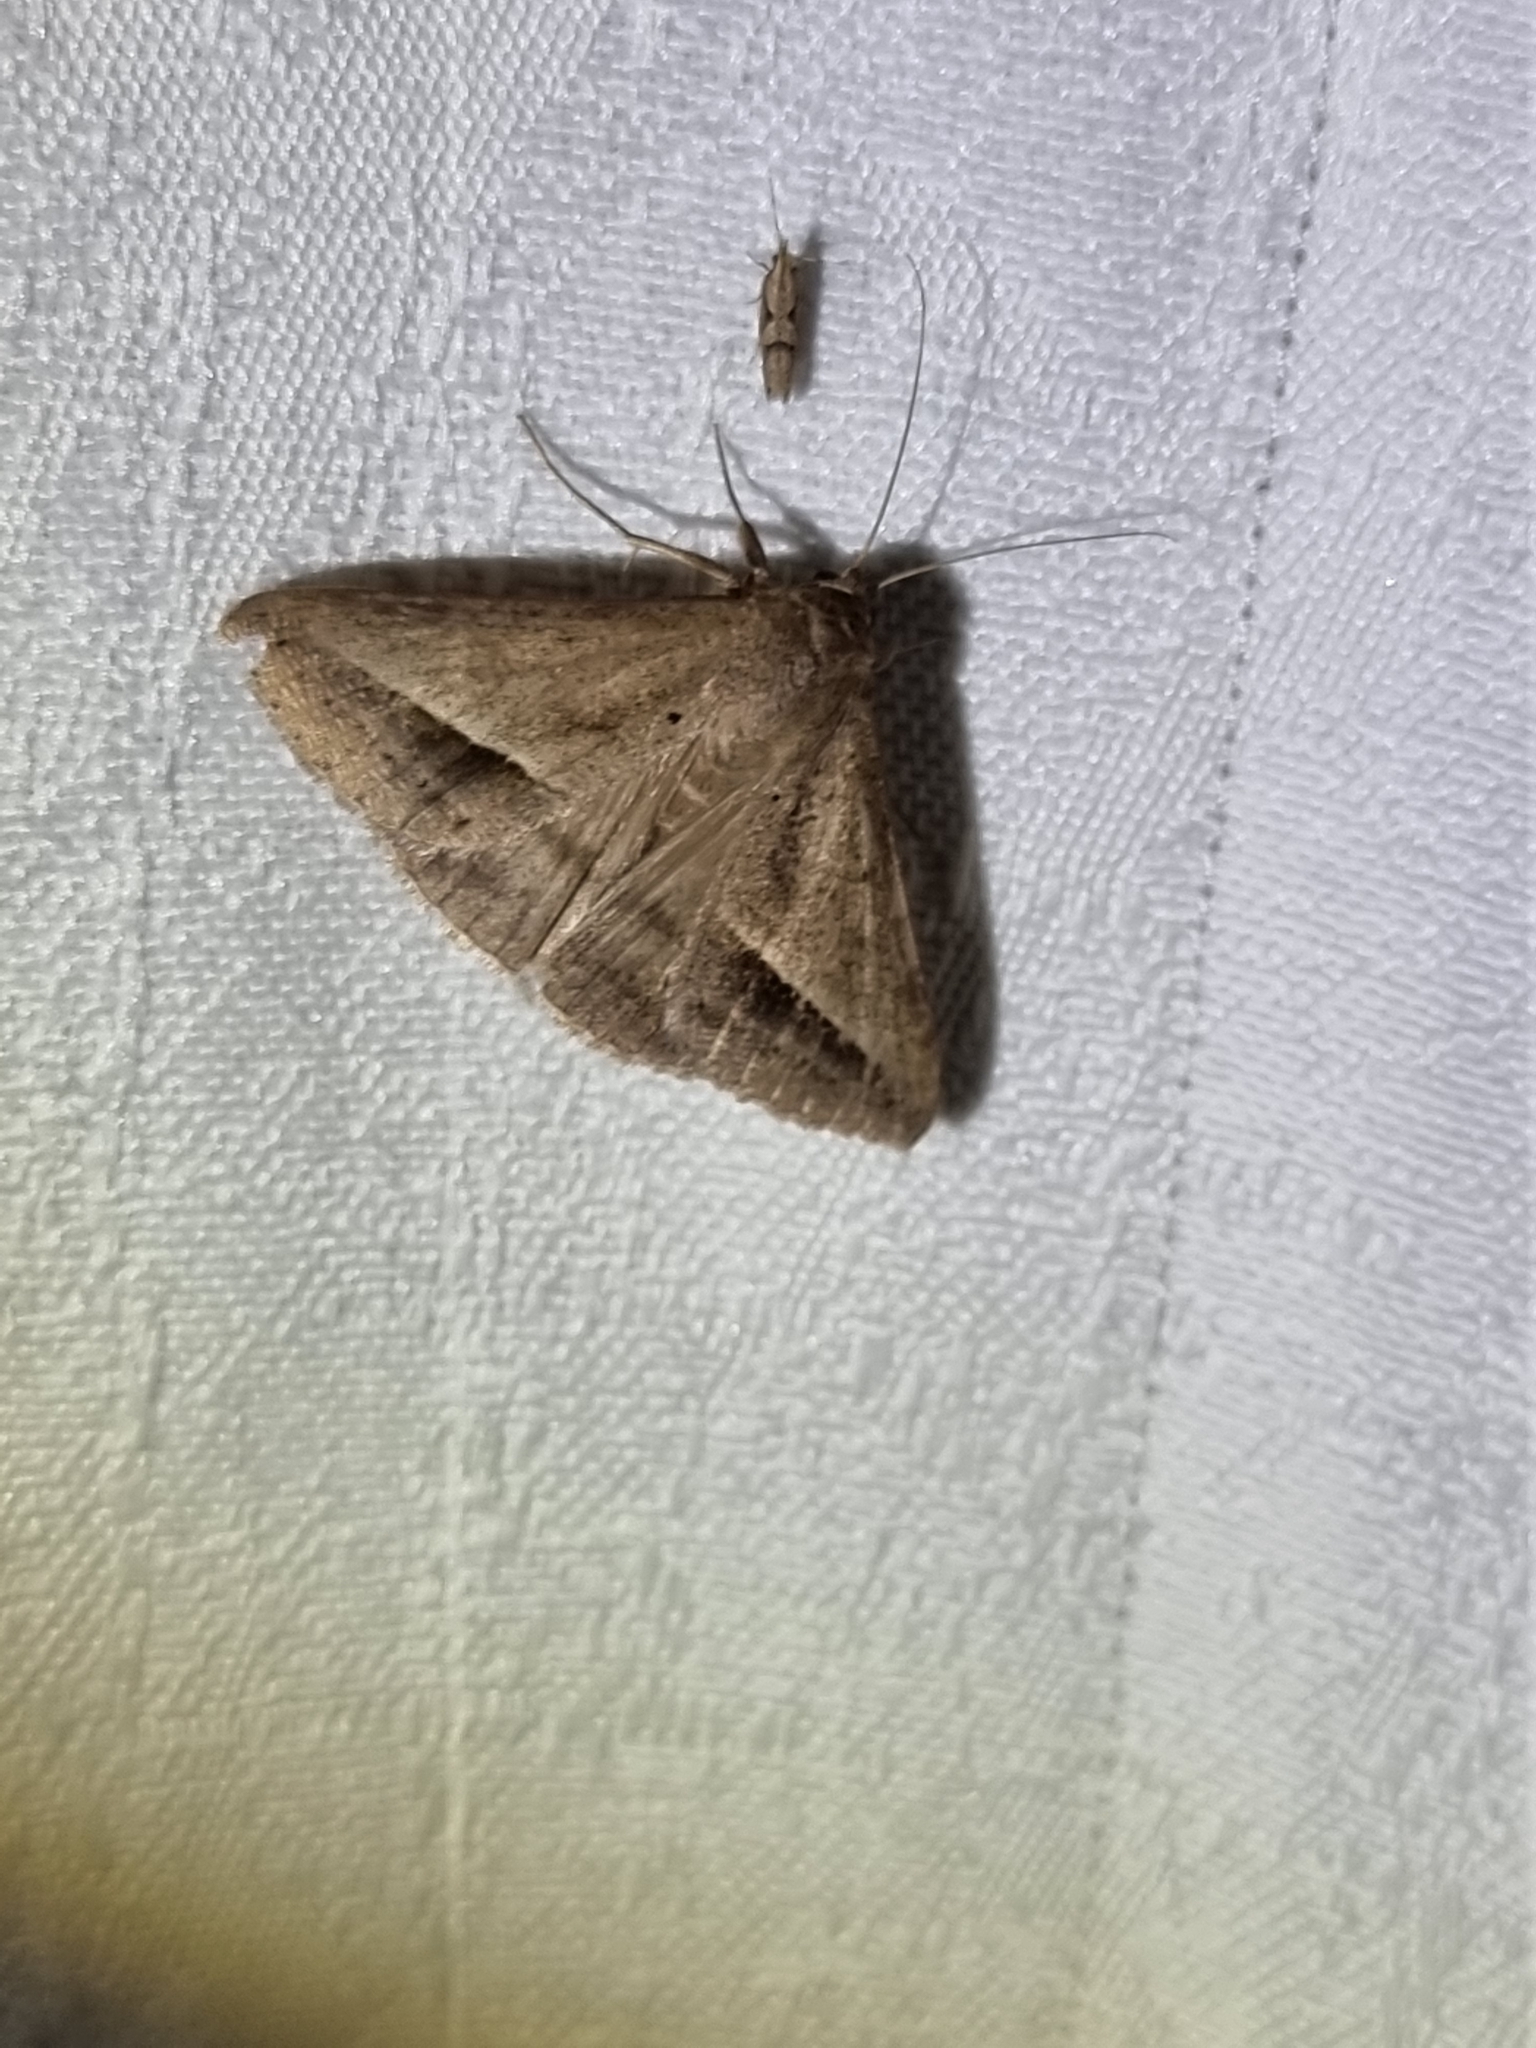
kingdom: Animalia
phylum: Arthropoda
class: Insecta
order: Lepidoptera
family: Erebidae
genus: Mocis
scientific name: Mocis frugalis
